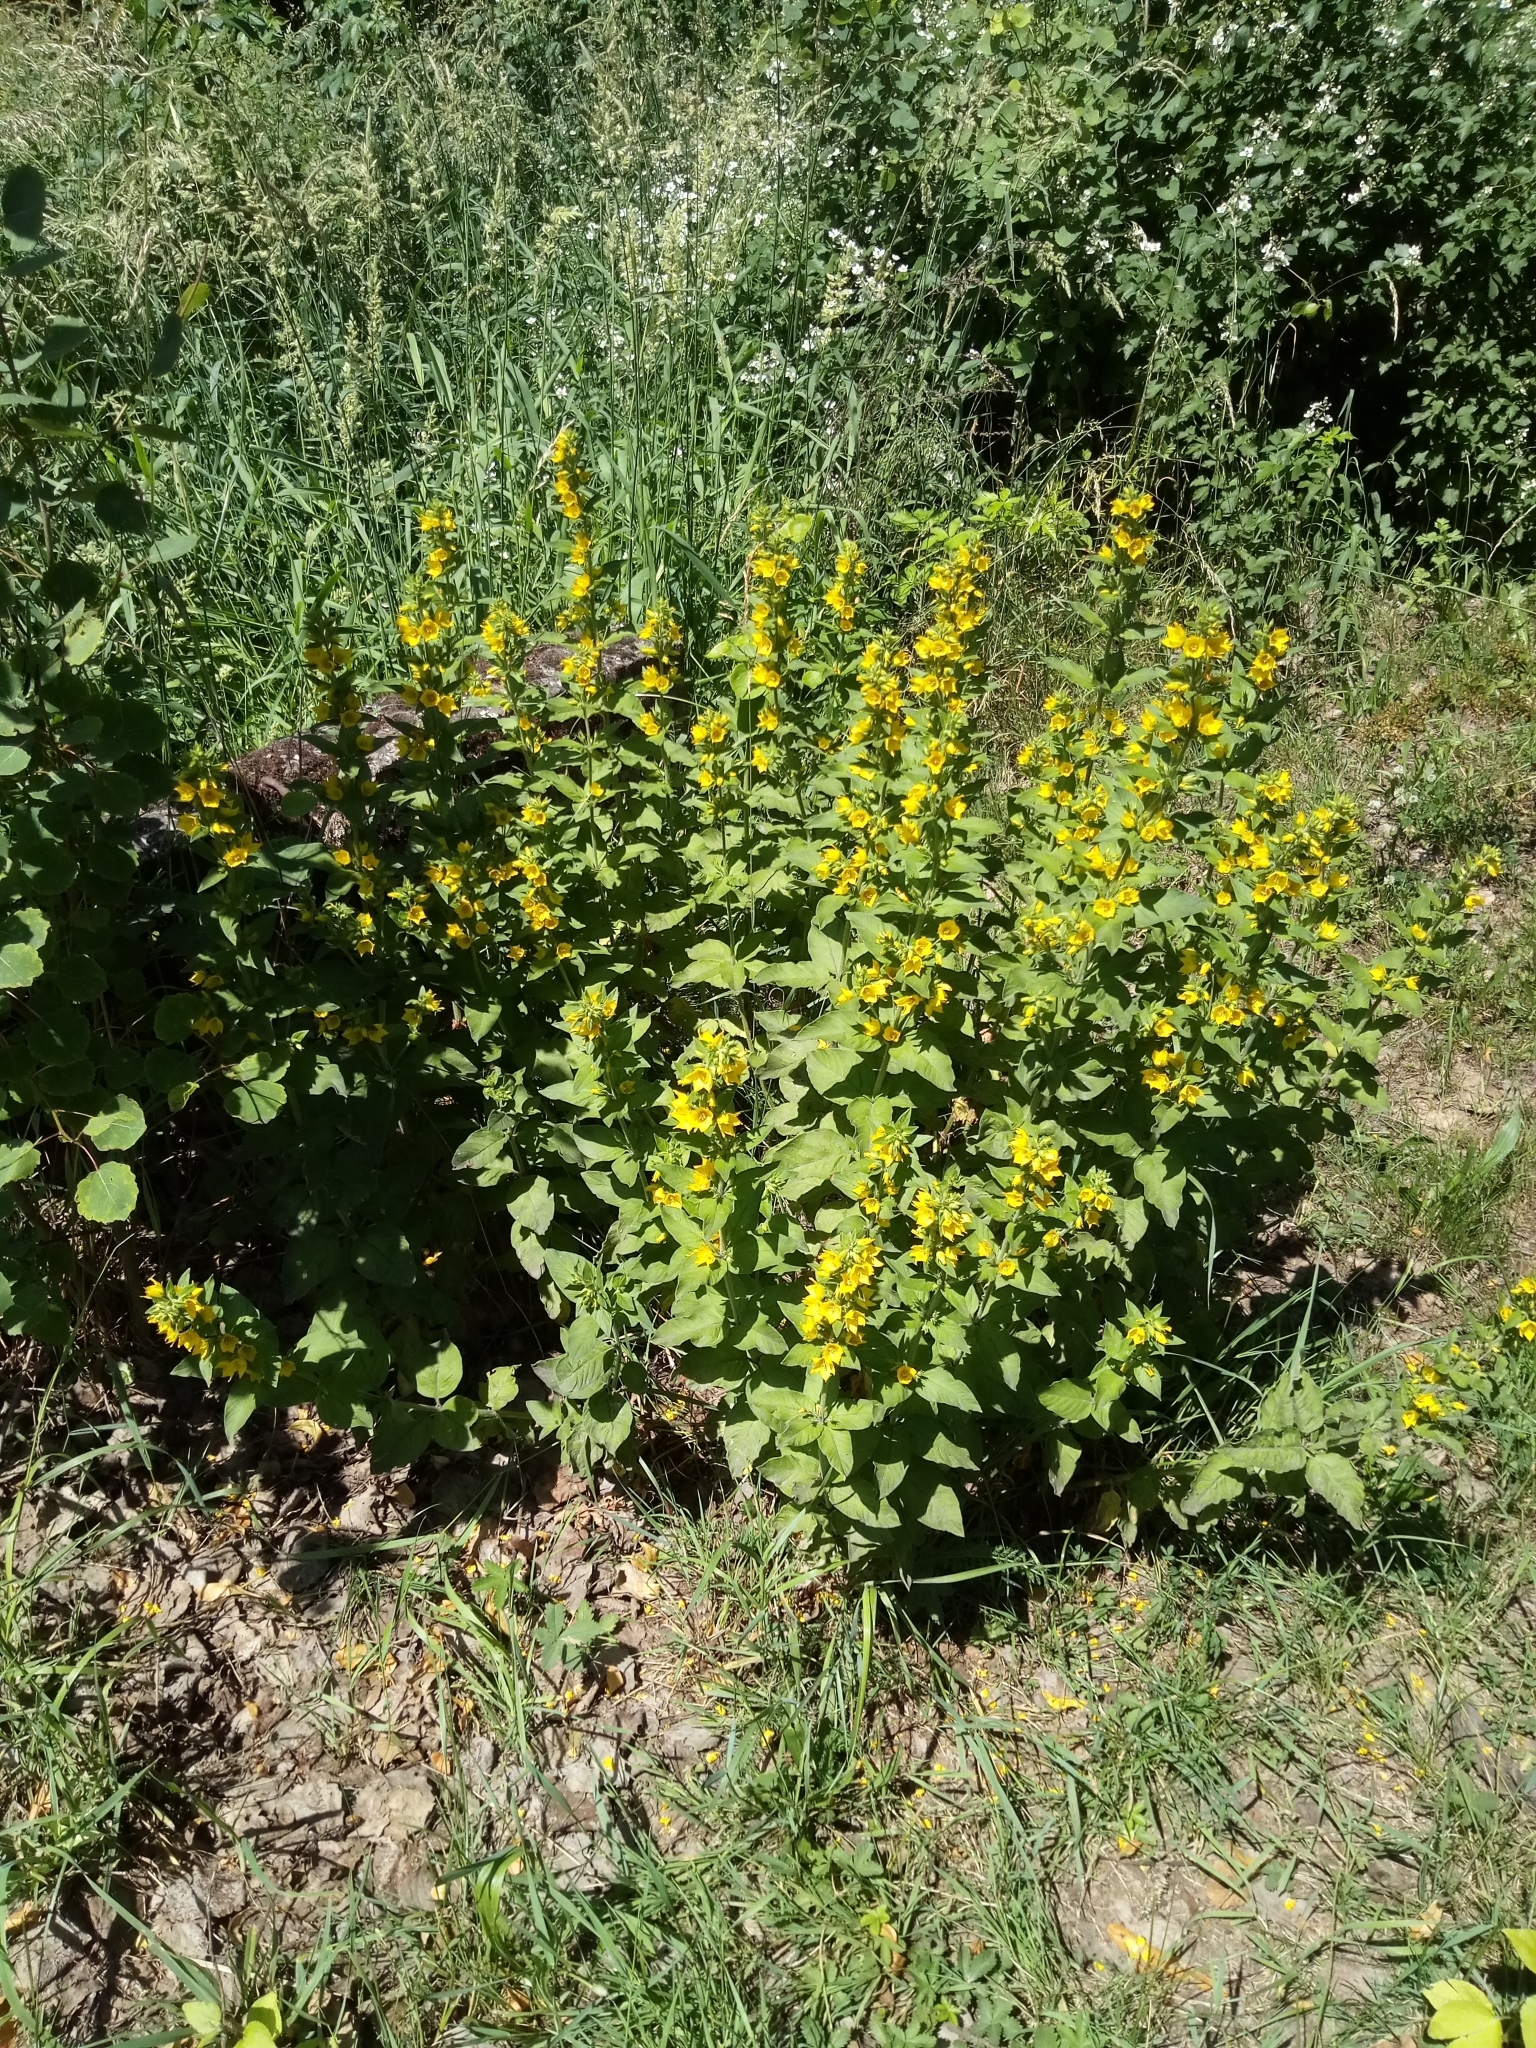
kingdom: Plantae
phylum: Tracheophyta
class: Magnoliopsida
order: Ericales
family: Primulaceae
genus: Lysimachia
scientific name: Lysimachia punctata
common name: Dotted loosestrife
